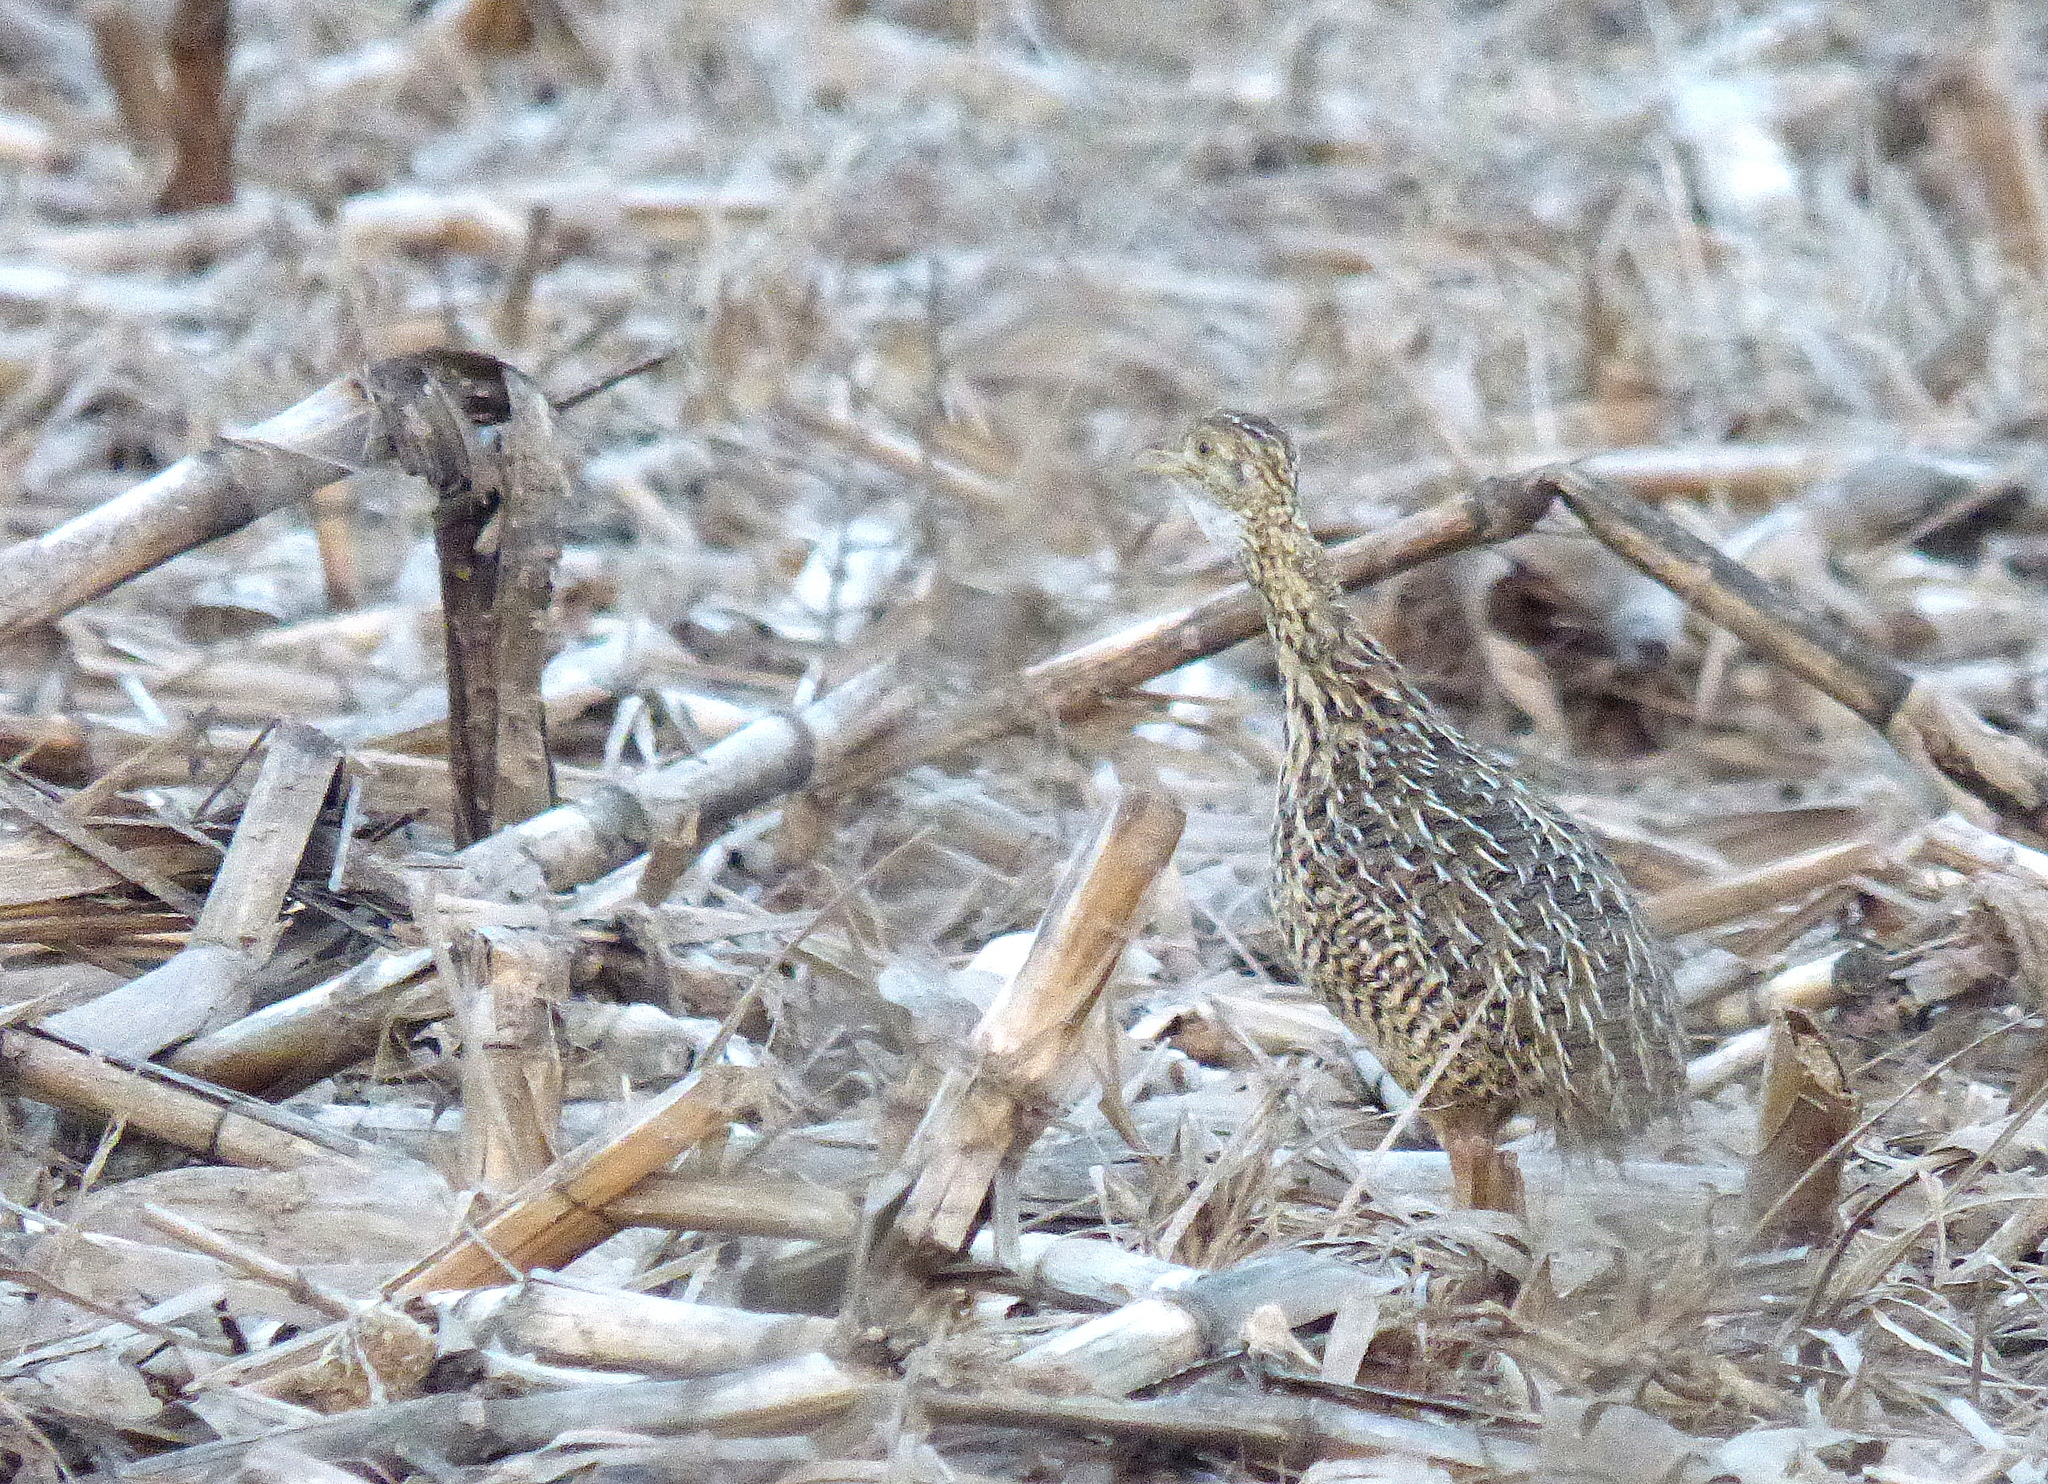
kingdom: Animalia
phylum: Chordata
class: Aves
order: Tinamiformes
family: Tinamidae
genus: Nothura
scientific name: Nothura maculosa
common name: Spotted nothura
